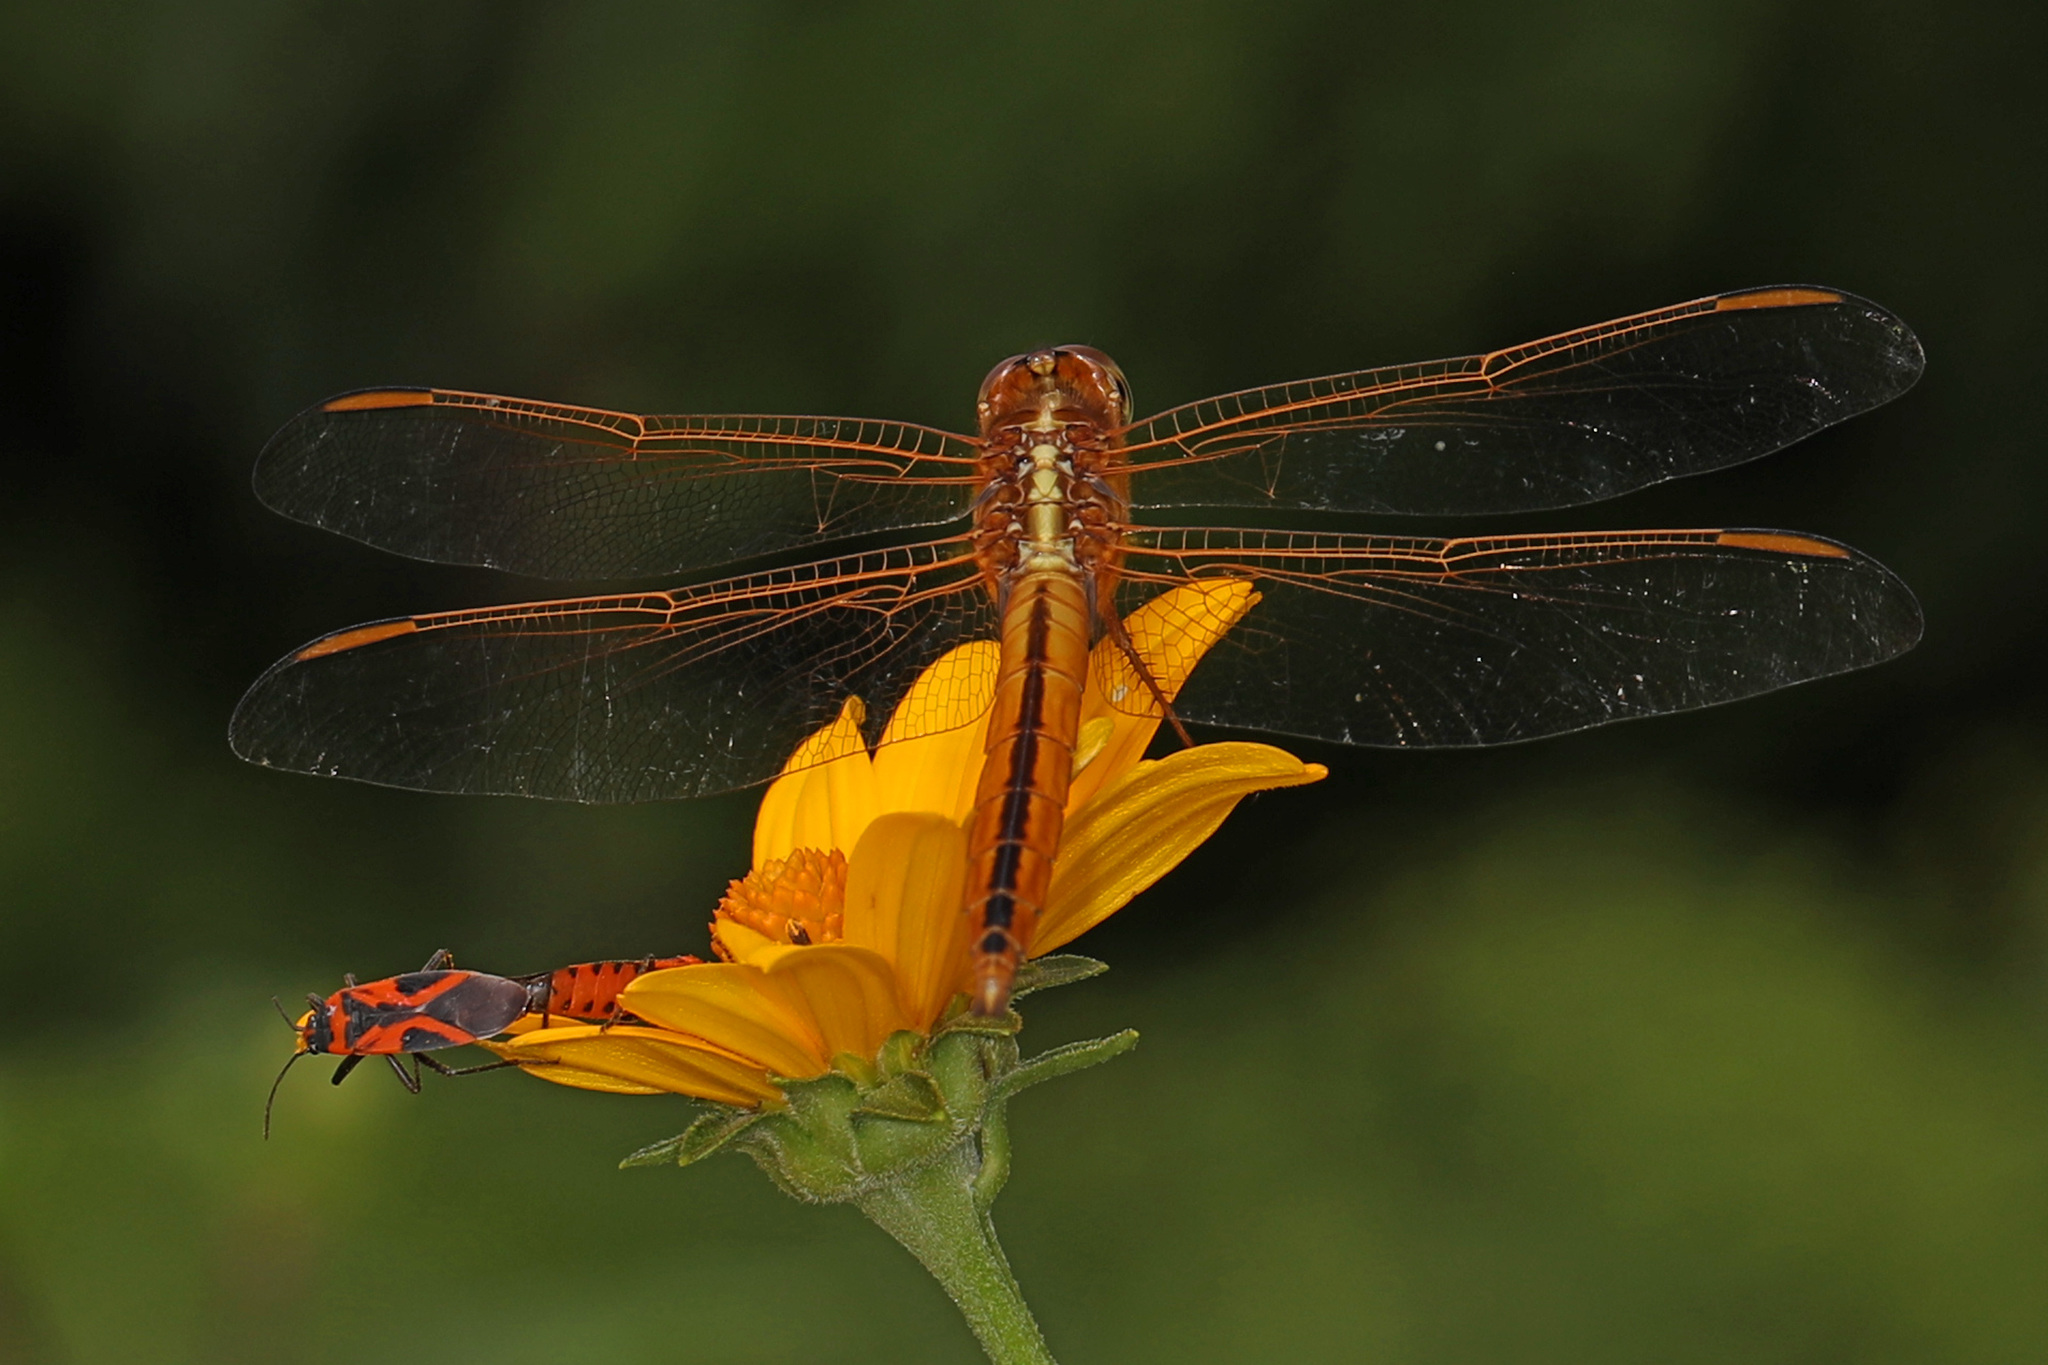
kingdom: Animalia
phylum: Arthropoda
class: Insecta
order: Odonata
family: Libellulidae
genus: Libellula
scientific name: Libellula needhami
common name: Needham's skimmer
